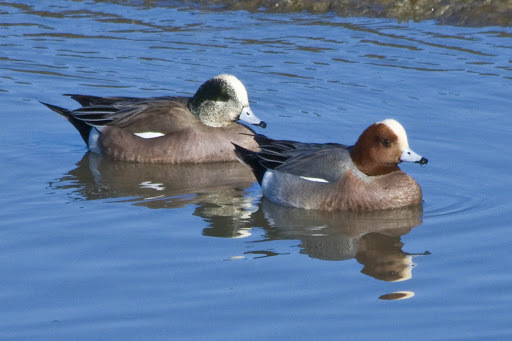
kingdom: Animalia
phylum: Chordata
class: Aves
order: Anseriformes
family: Anatidae
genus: Mareca
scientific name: Mareca penelope
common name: Eurasian wigeon
